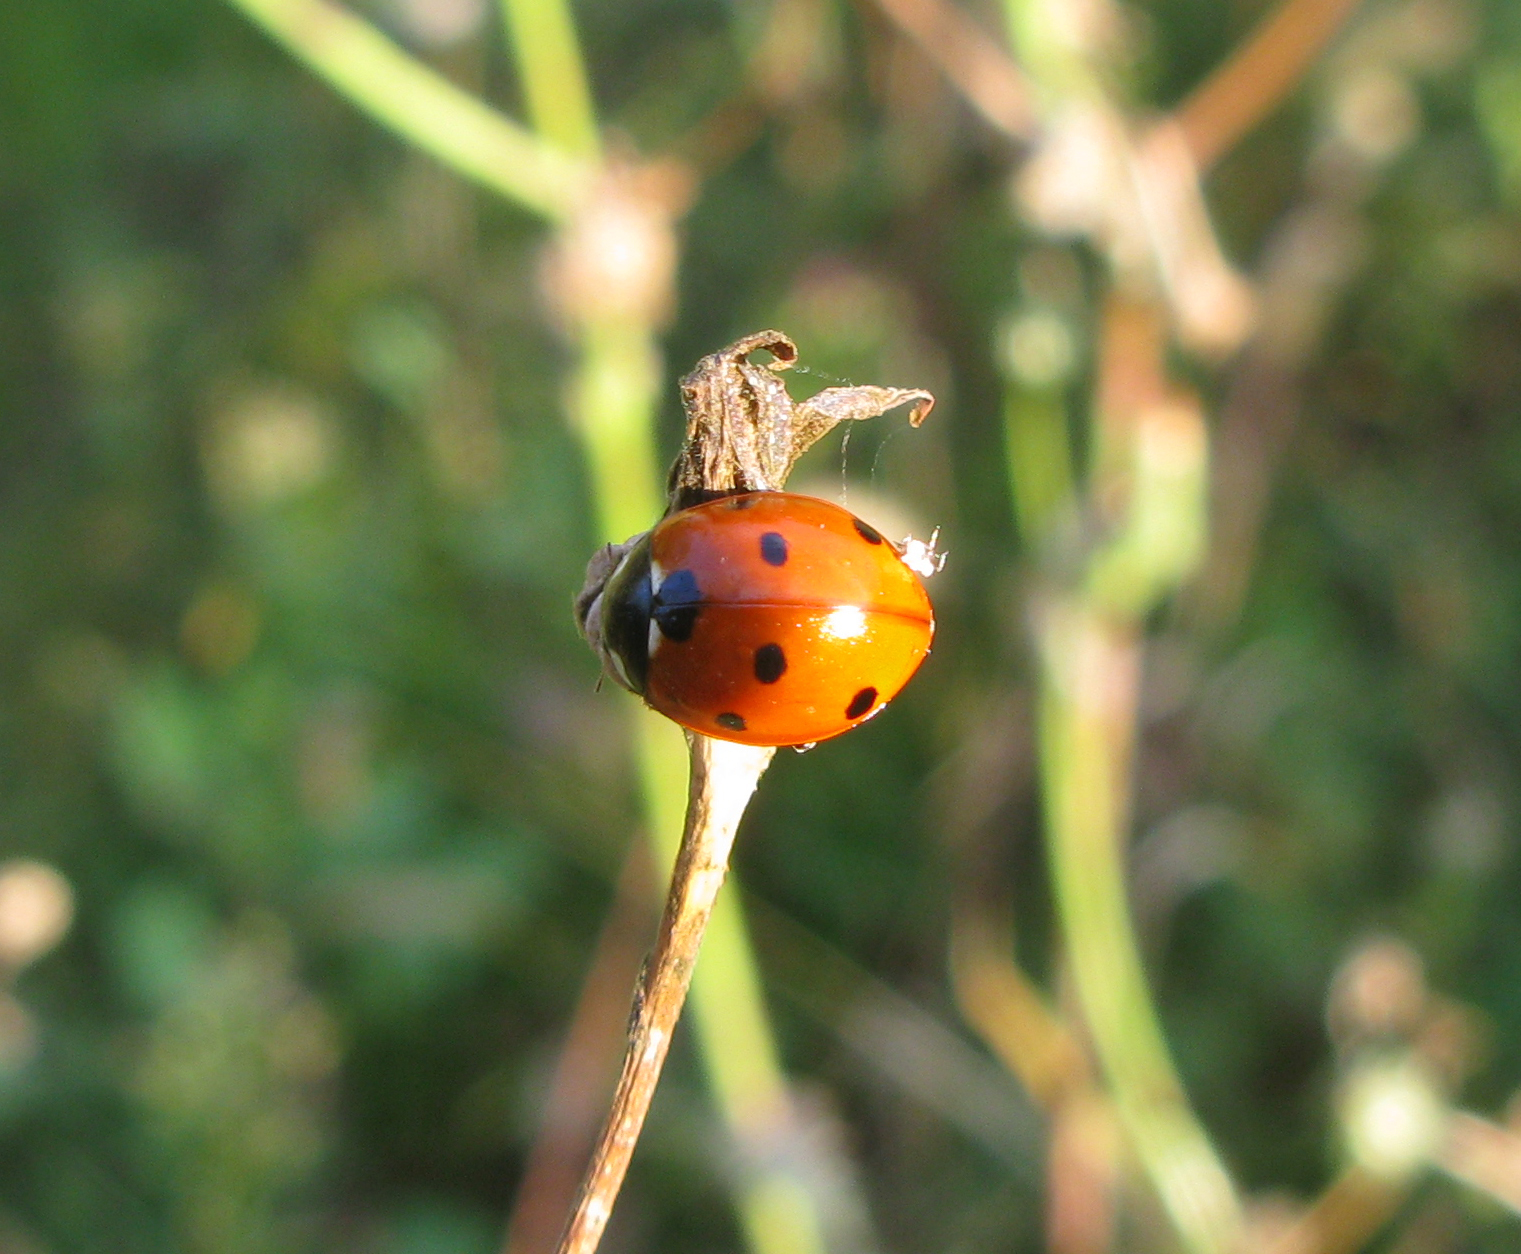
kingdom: Animalia
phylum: Arthropoda
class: Insecta
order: Coleoptera
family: Coccinellidae
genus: Coccinella
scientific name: Coccinella septempunctata
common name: Sevenspotted lady beetle
